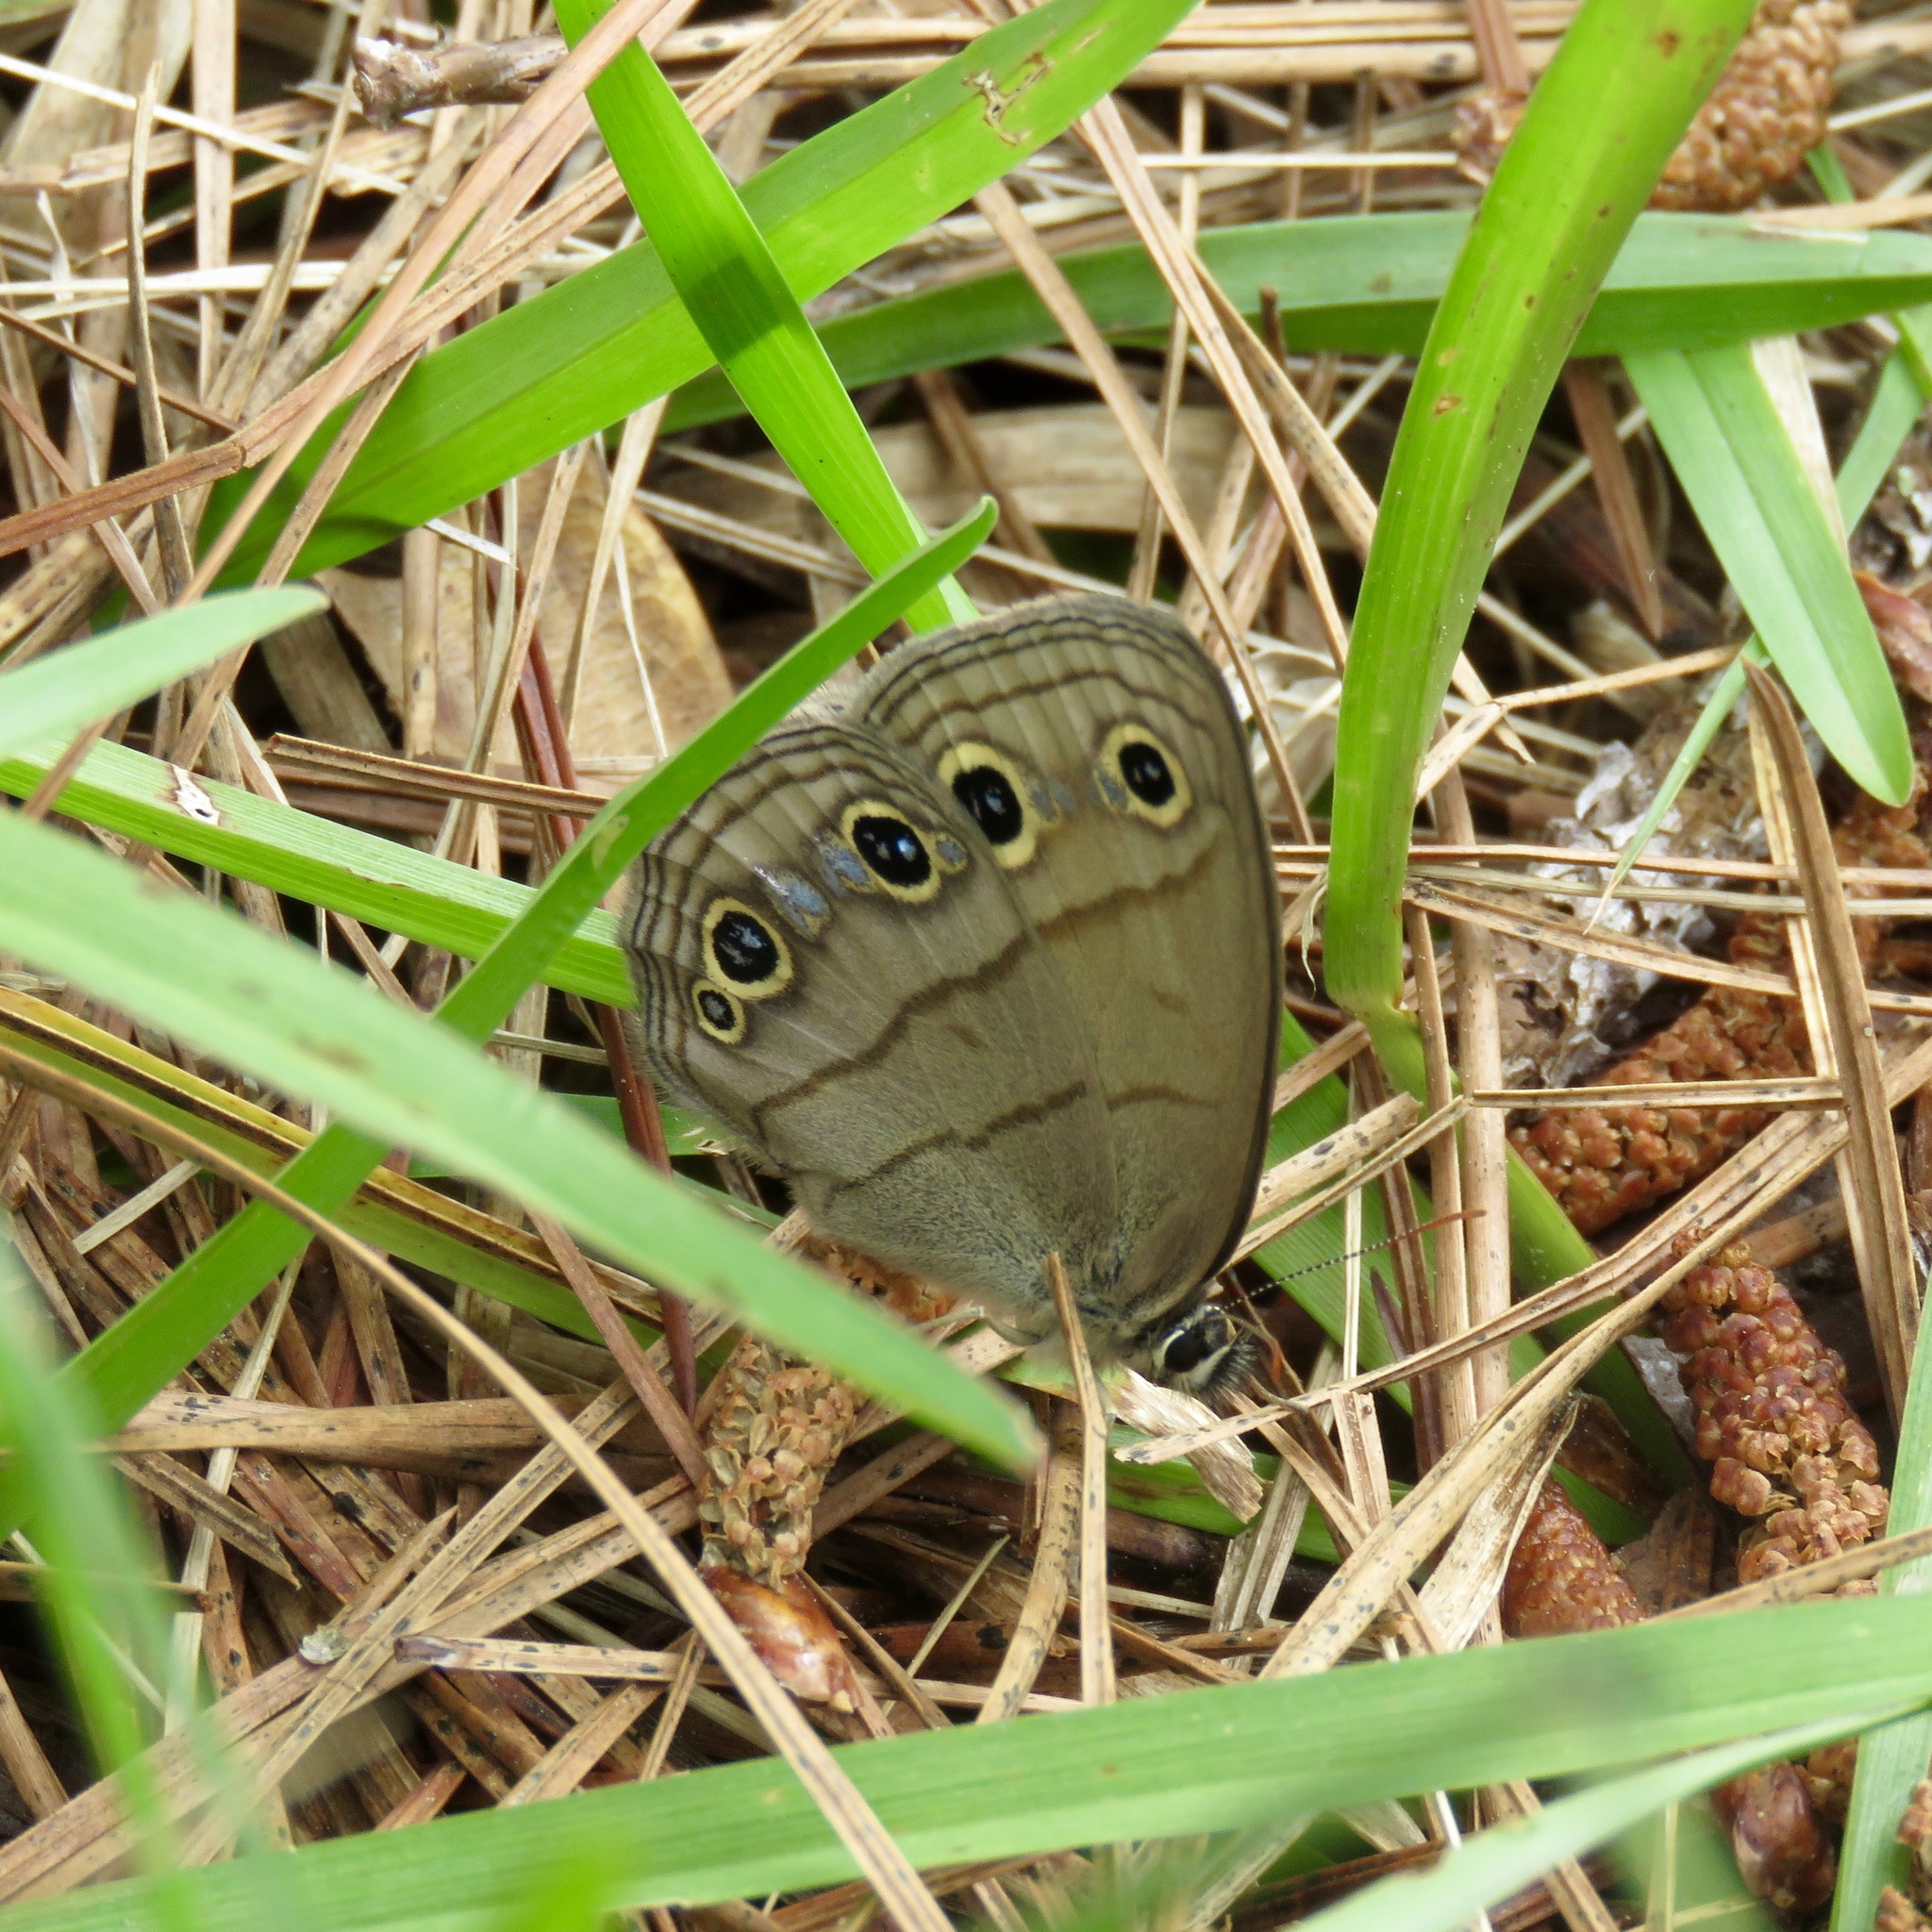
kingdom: Animalia
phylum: Arthropoda
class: Insecta
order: Lepidoptera
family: Nymphalidae
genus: Euptychia
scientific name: Euptychia cymela
